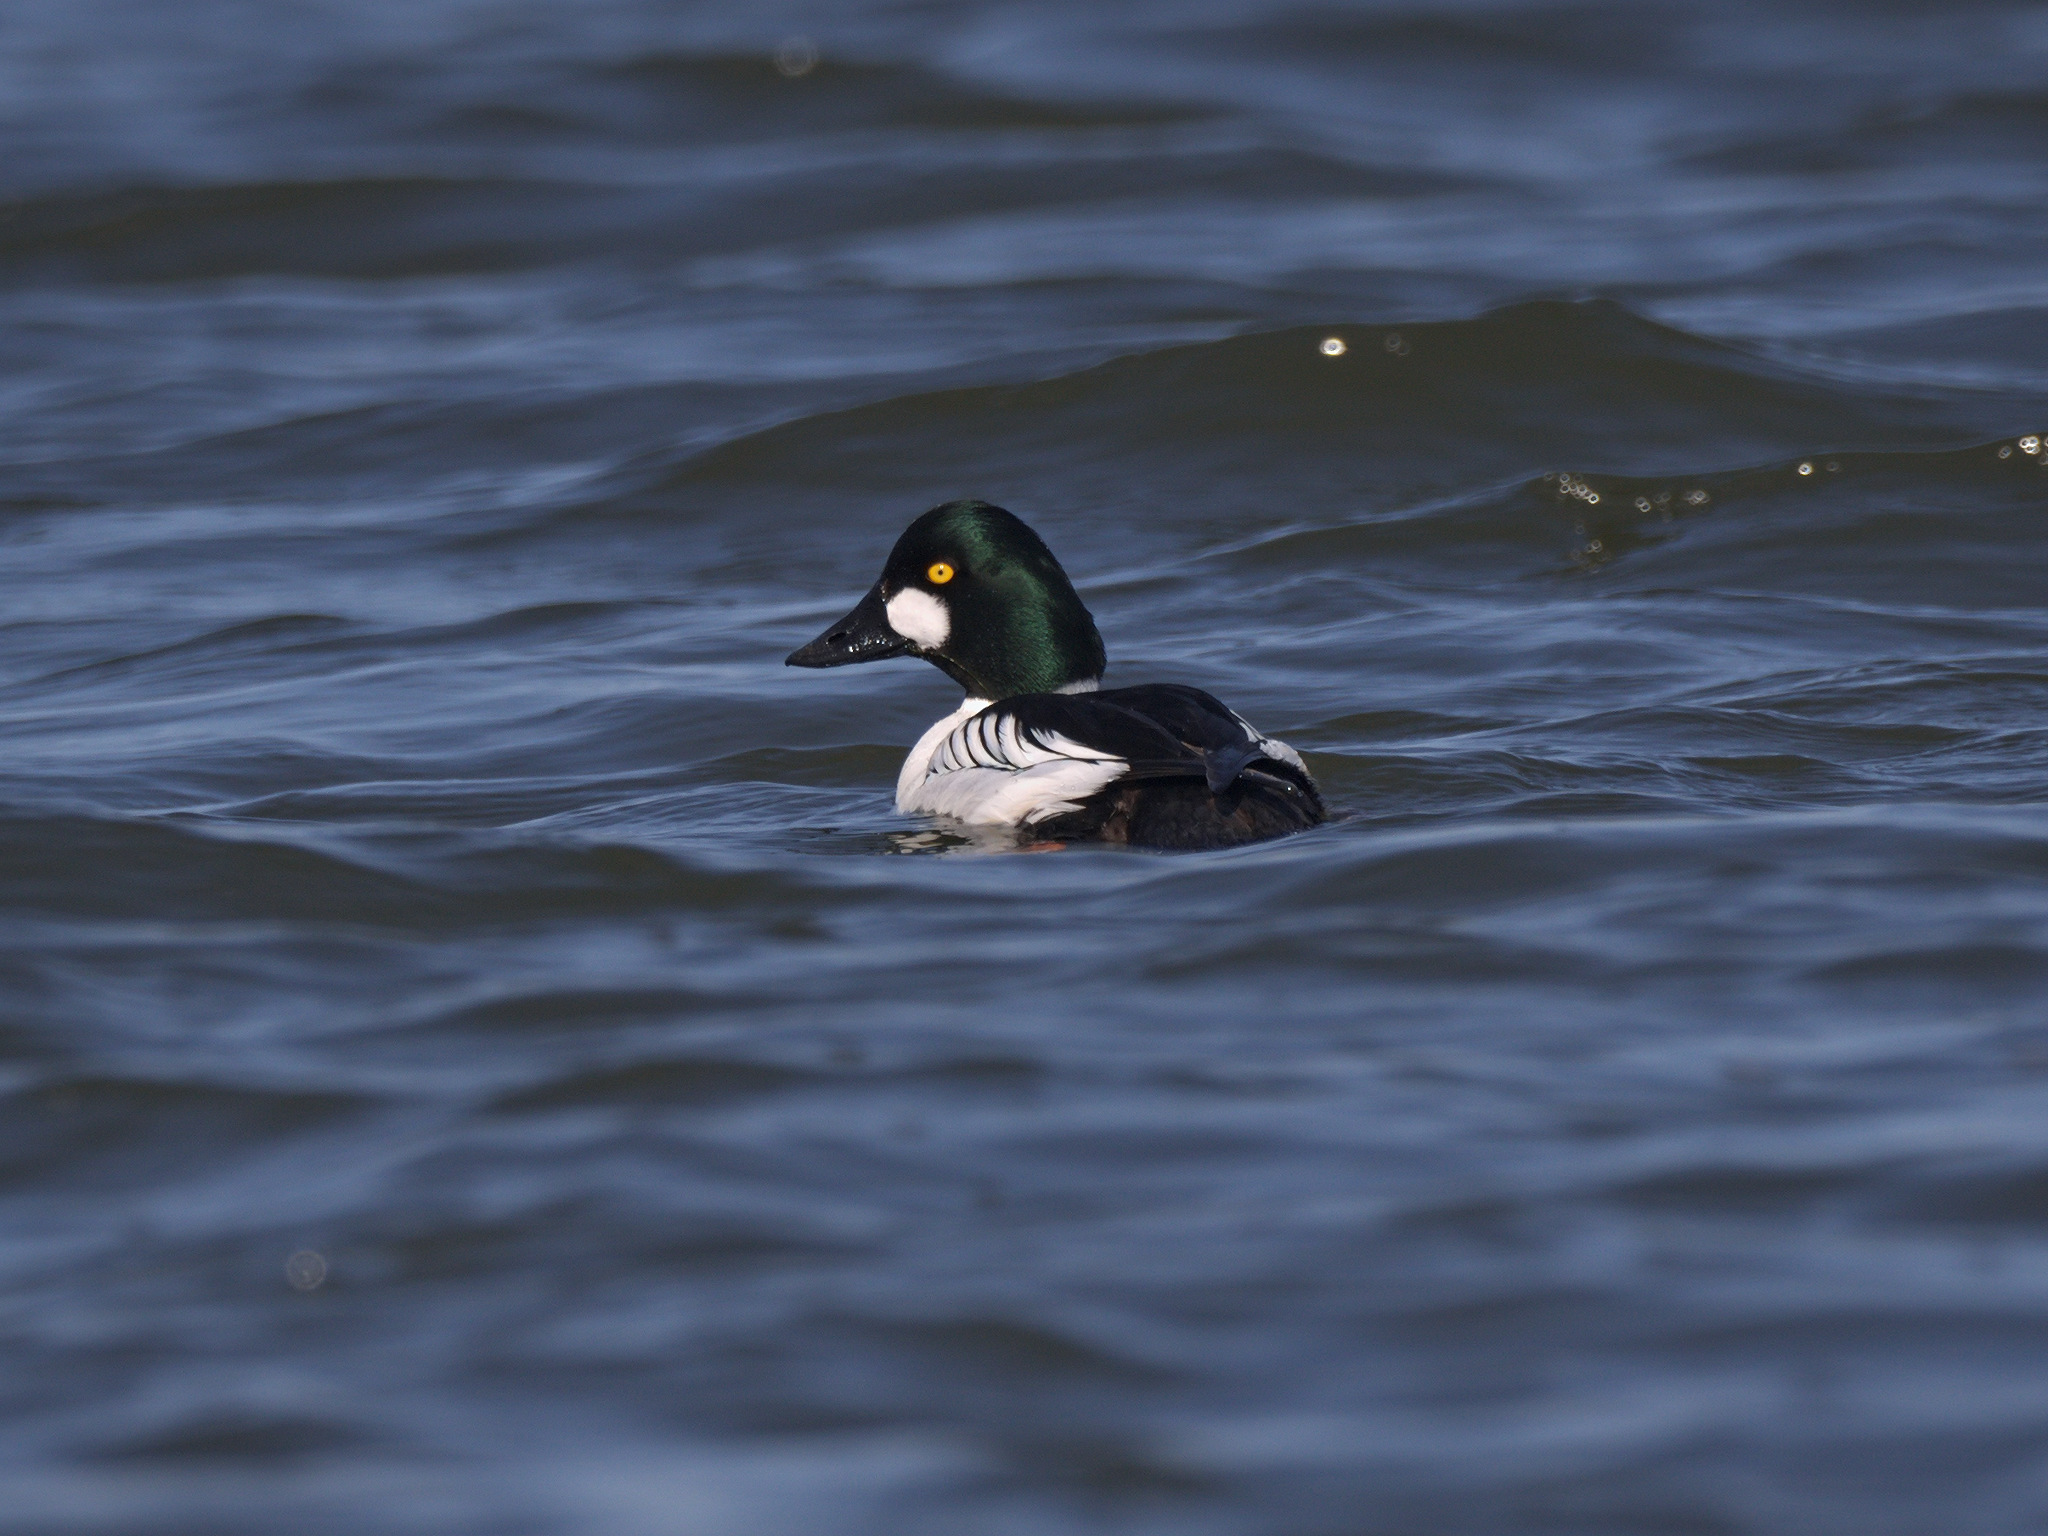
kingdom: Animalia
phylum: Chordata
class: Aves
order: Anseriformes
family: Anatidae
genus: Bucephala
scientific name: Bucephala clangula
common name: Common goldeneye
